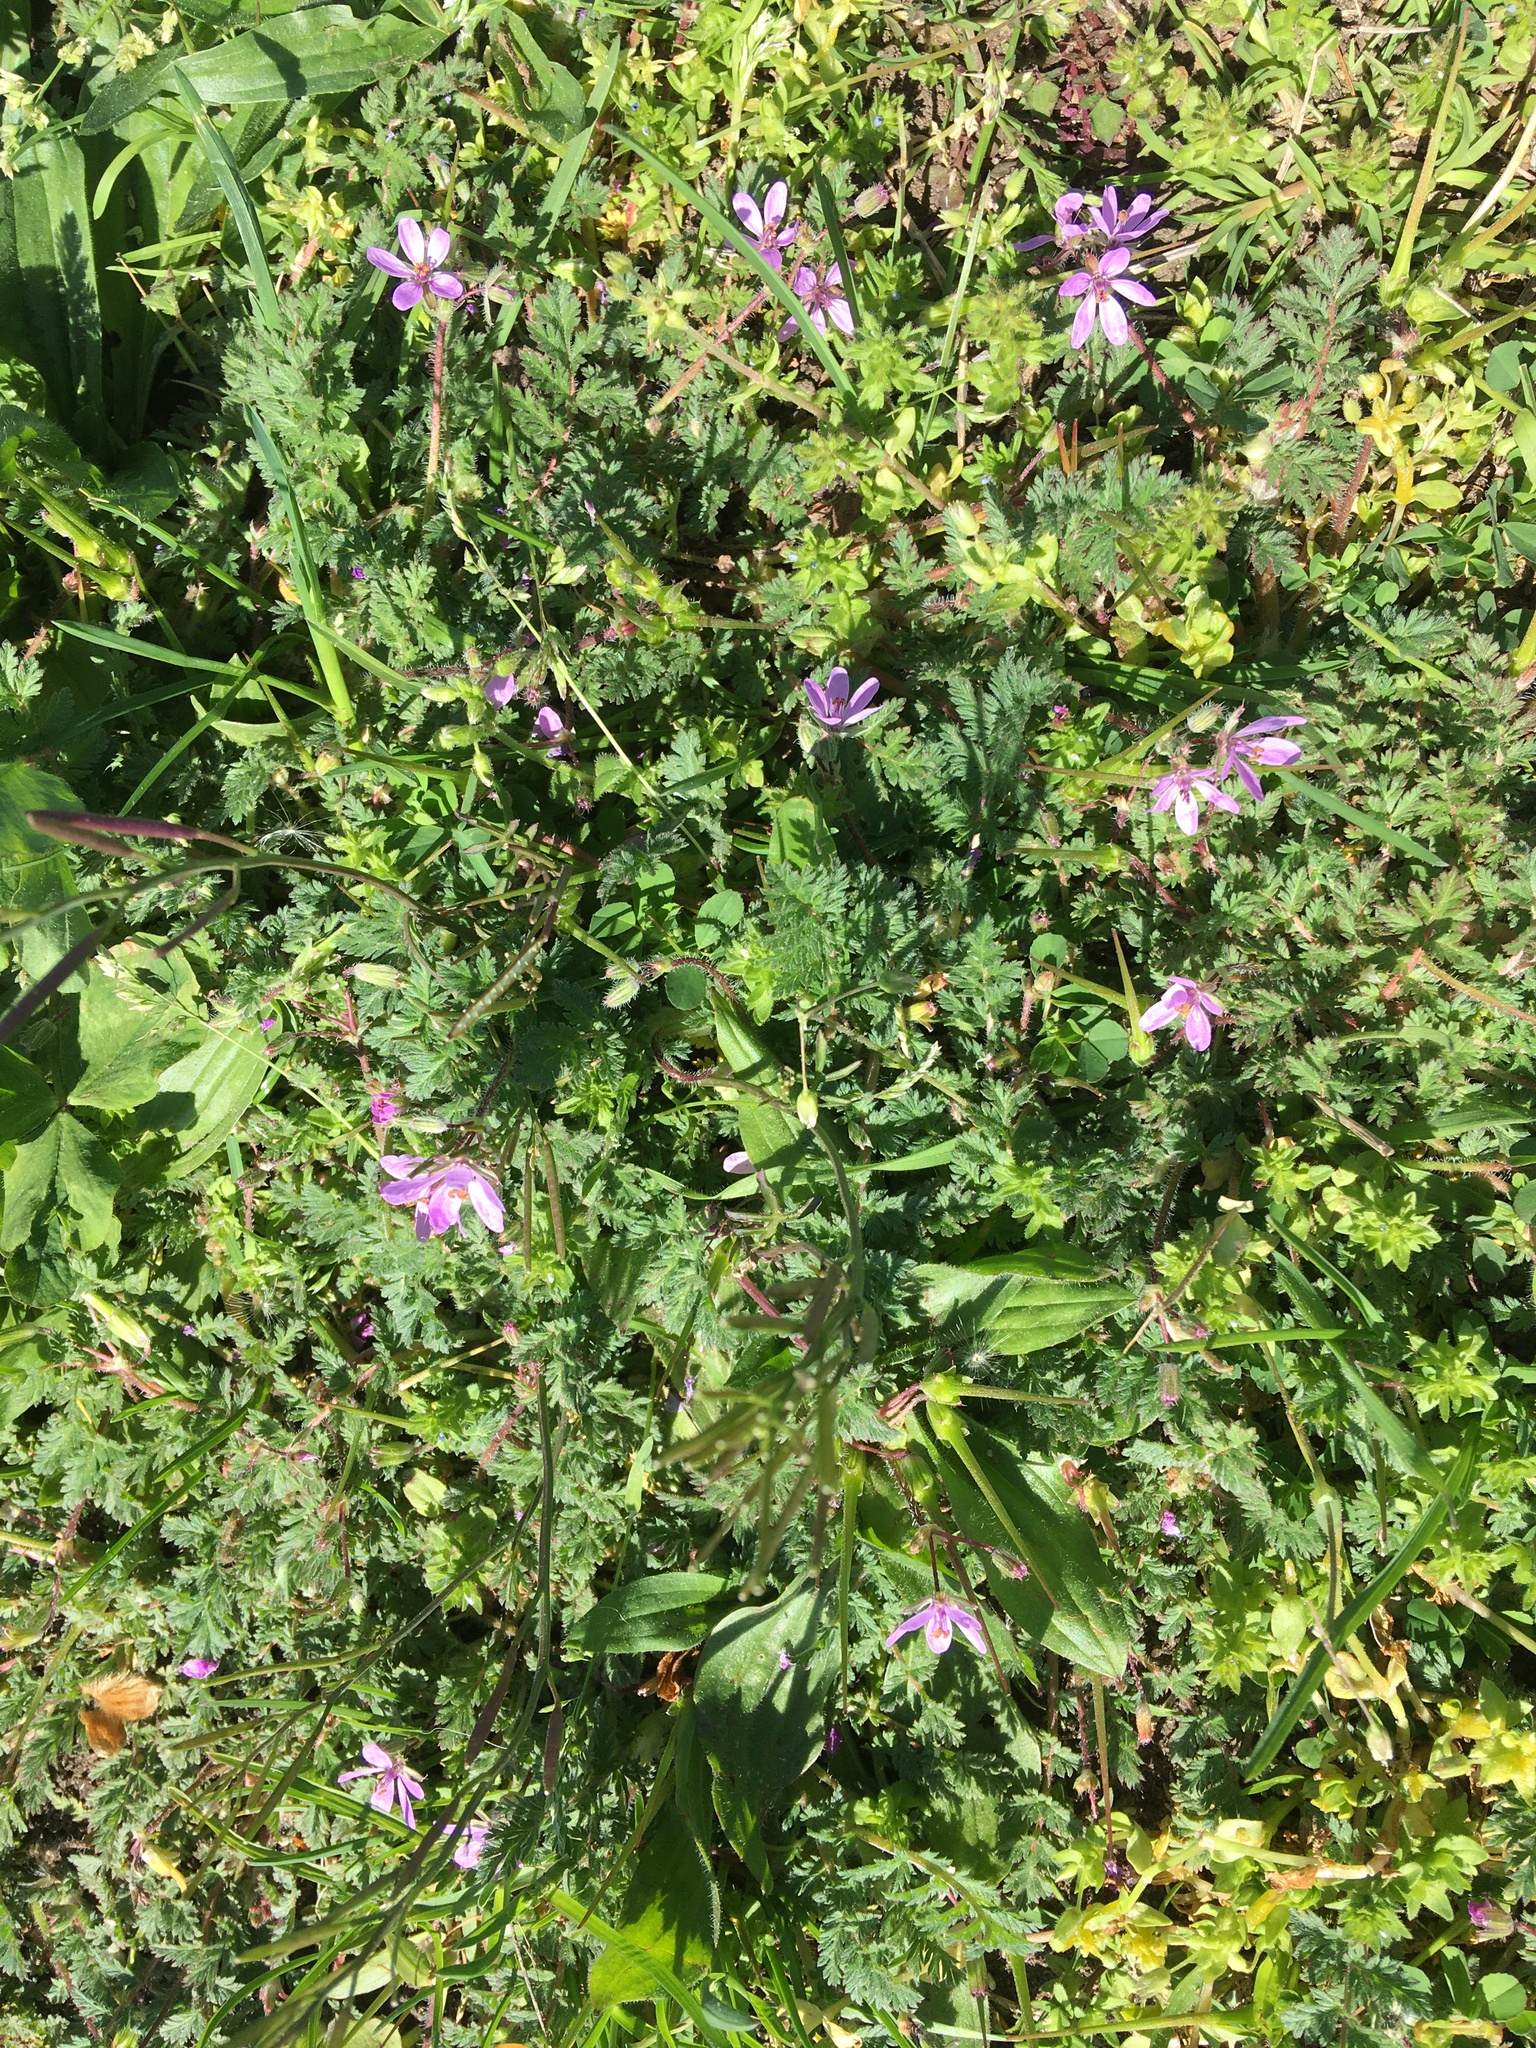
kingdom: Plantae
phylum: Tracheophyta
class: Magnoliopsida
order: Geraniales
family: Geraniaceae
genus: Erodium
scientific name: Erodium cicutarium
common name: Common stork's-bill
